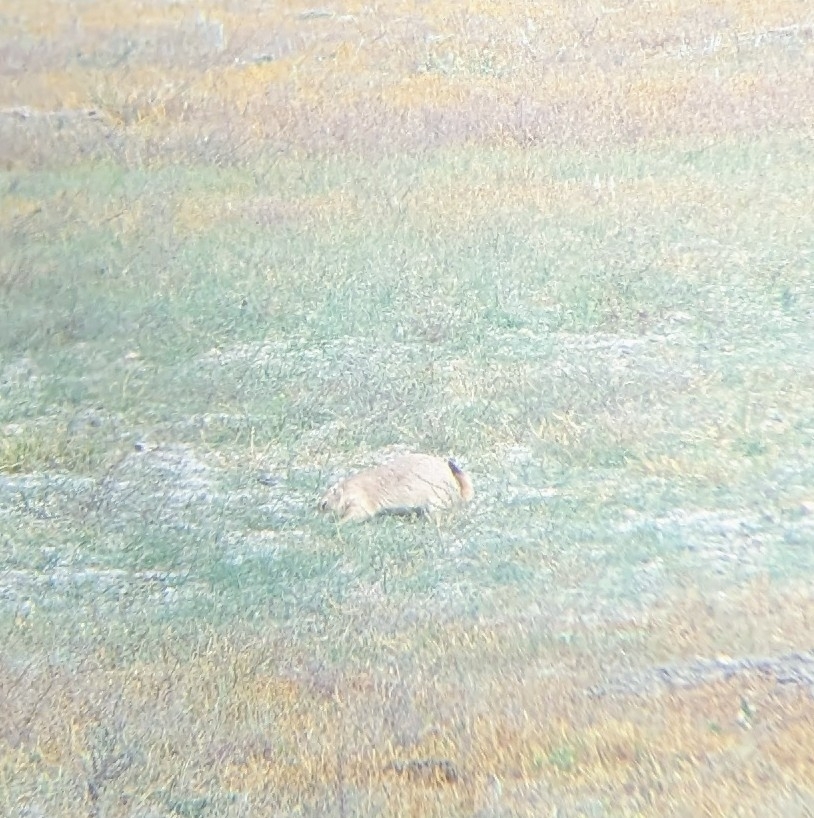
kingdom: Animalia
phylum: Chordata
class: Mammalia
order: Rodentia
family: Sciuridae
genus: Cynomys
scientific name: Cynomys ludovicianus
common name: Black-tailed prairie dog
